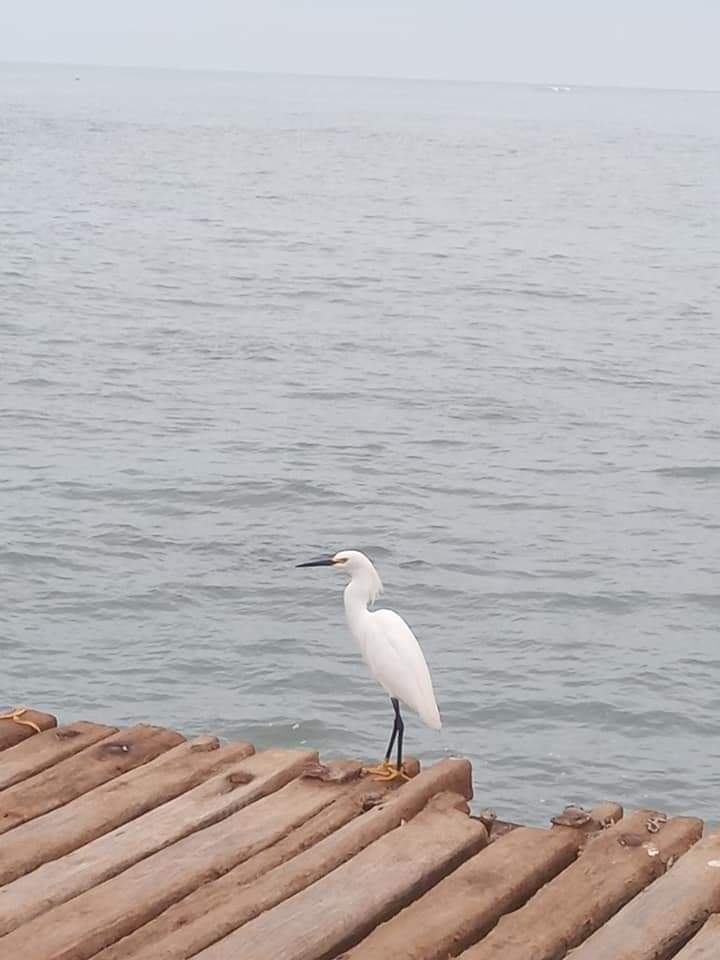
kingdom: Animalia
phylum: Chordata
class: Aves
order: Pelecaniformes
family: Ardeidae
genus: Egretta
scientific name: Egretta thula
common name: Snowy egret
